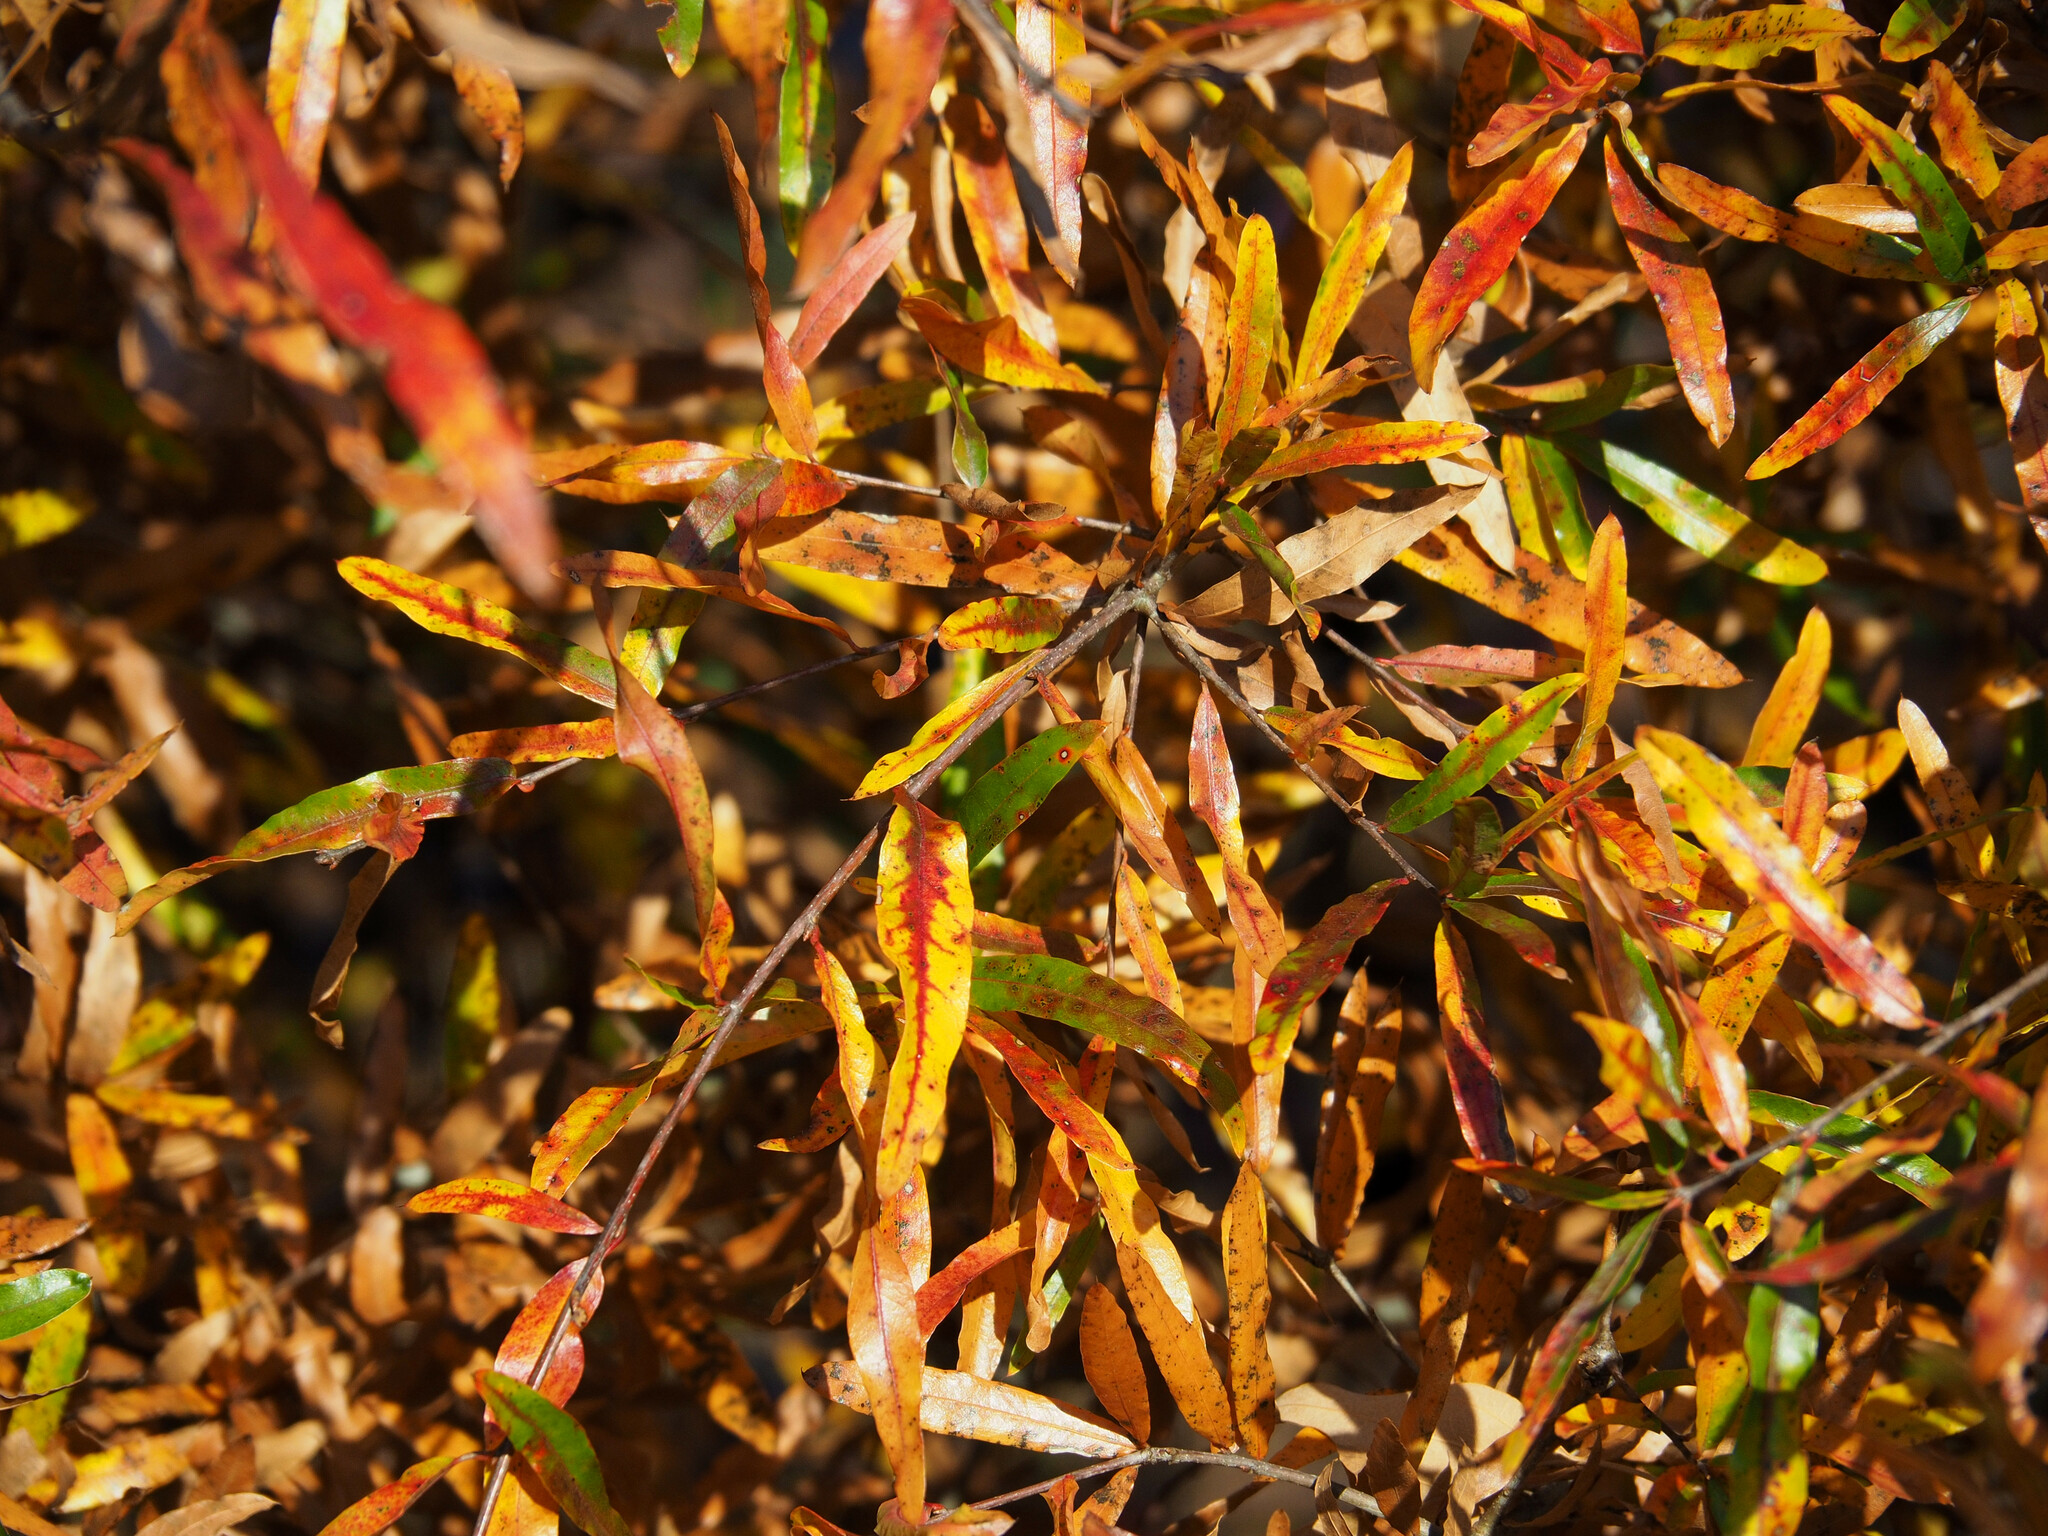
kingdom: Plantae
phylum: Tracheophyta
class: Magnoliopsida
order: Fagales
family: Fagaceae
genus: Quercus
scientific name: Quercus phellos
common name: Willow oak
